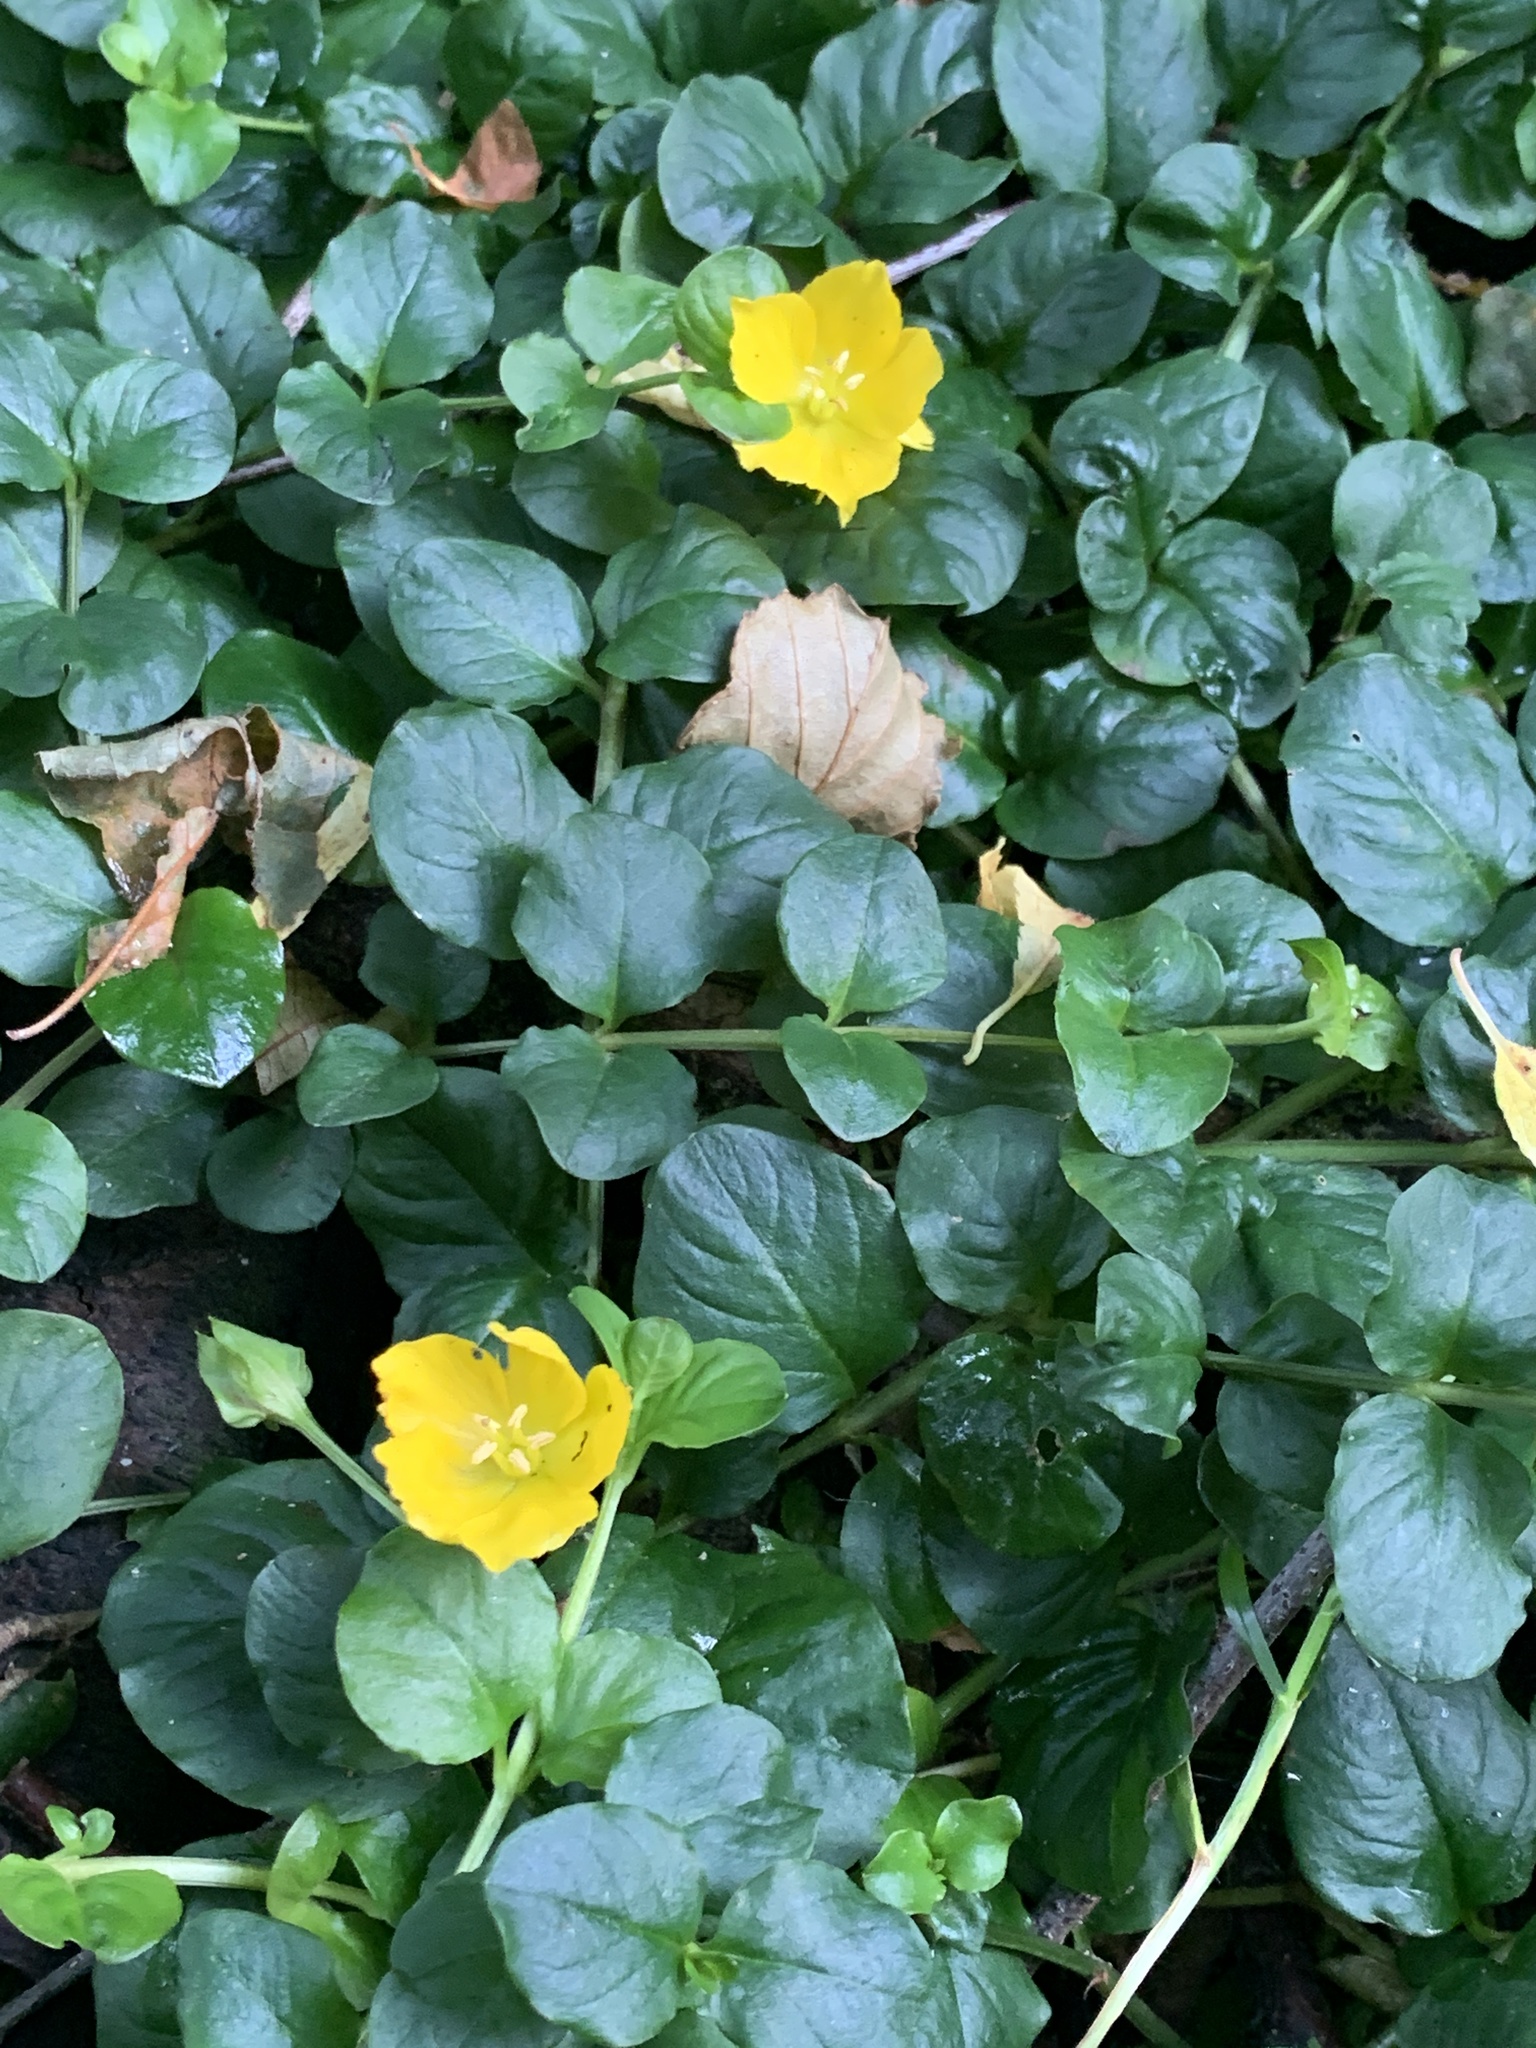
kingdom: Plantae
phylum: Tracheophyta
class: Magnoliopsida
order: Ericales
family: Primulaceae
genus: Lysimachia
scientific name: Lysimachia nummularia
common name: Moneywort
